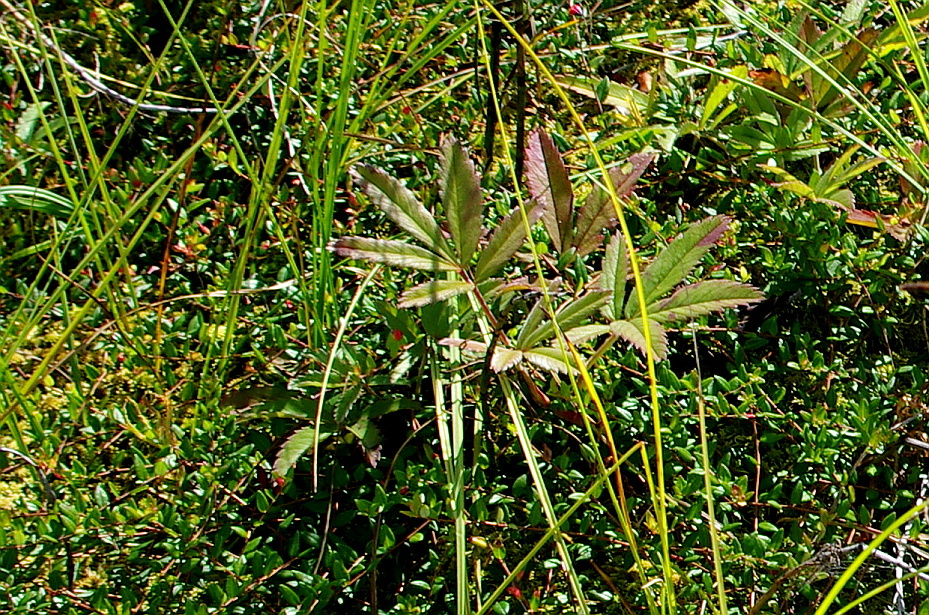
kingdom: Plantae
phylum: Tracheophyta
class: Magnoliopsida
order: Rosales
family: Rosaceae
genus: Comarum
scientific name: Comarum palustre
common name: Marsh cinquefoil
